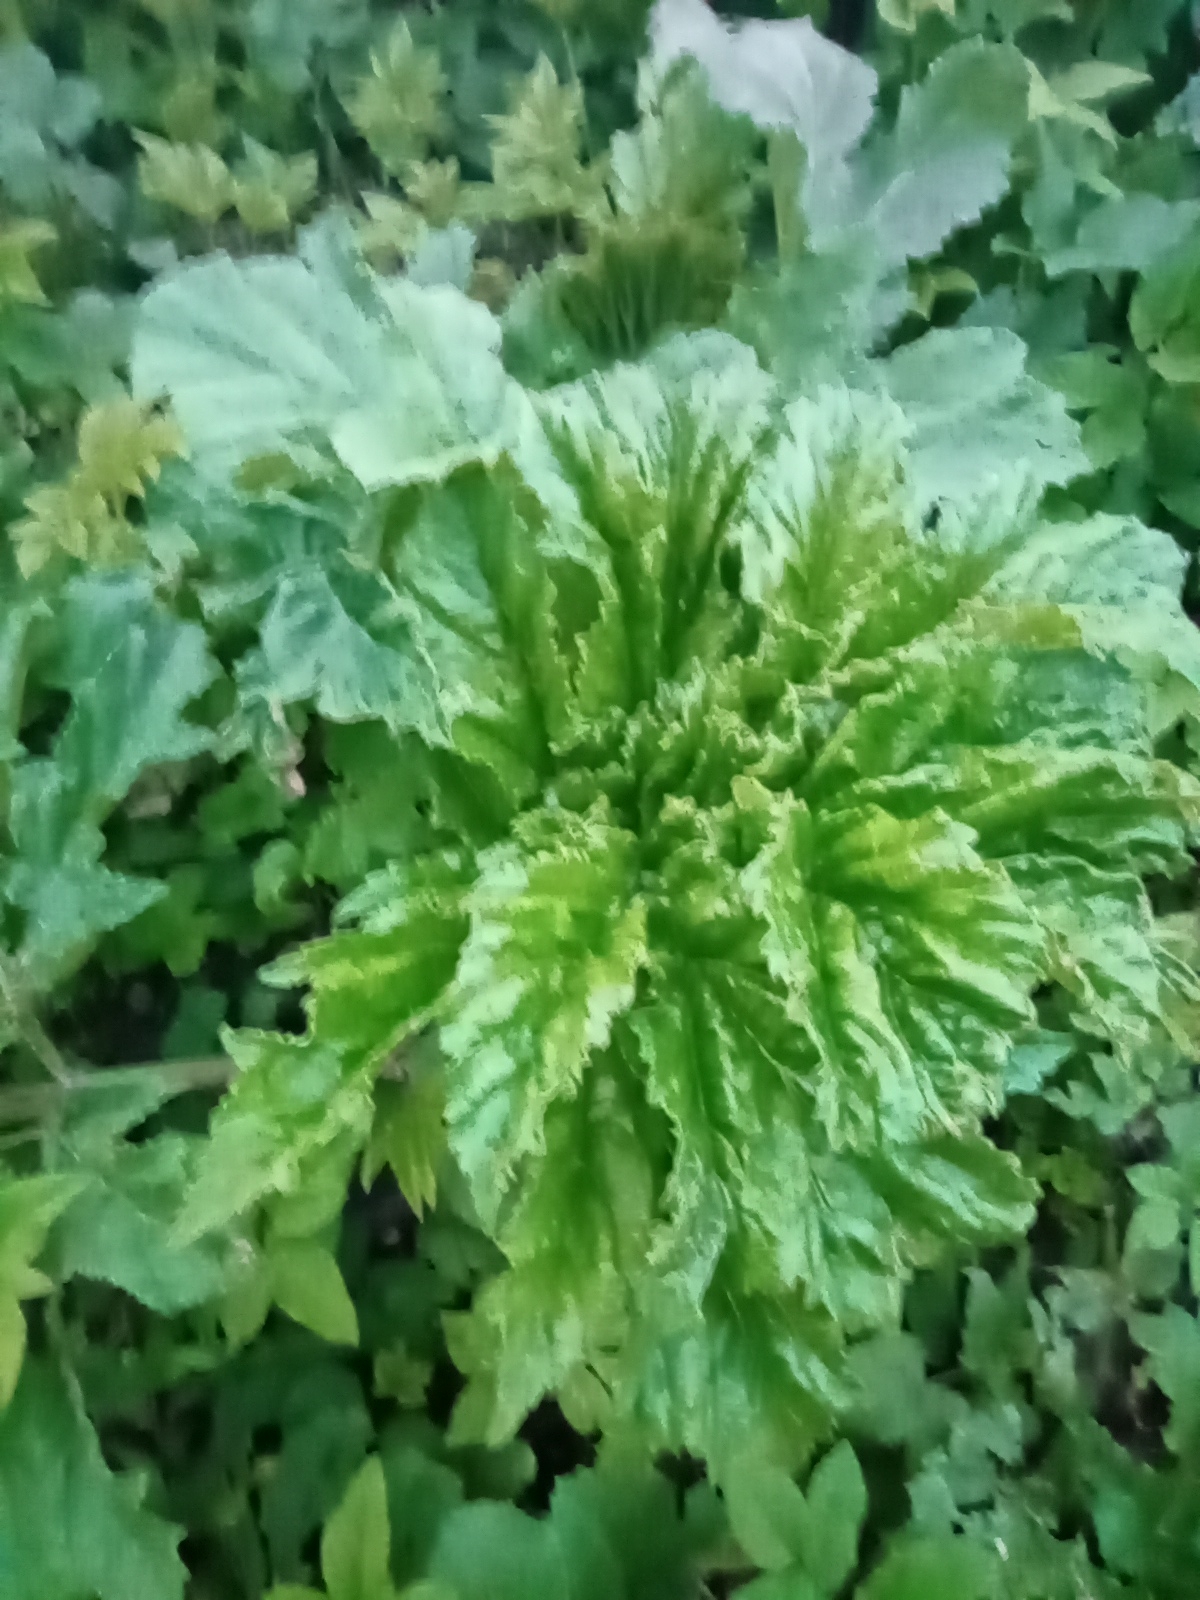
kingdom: Plantae
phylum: Tracheophyta
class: Magnoliopsida
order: Apiales
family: Apiaceae
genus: Heracleum
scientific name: Heracleum sosnowskyi
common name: Sosnowsky's hogweed
